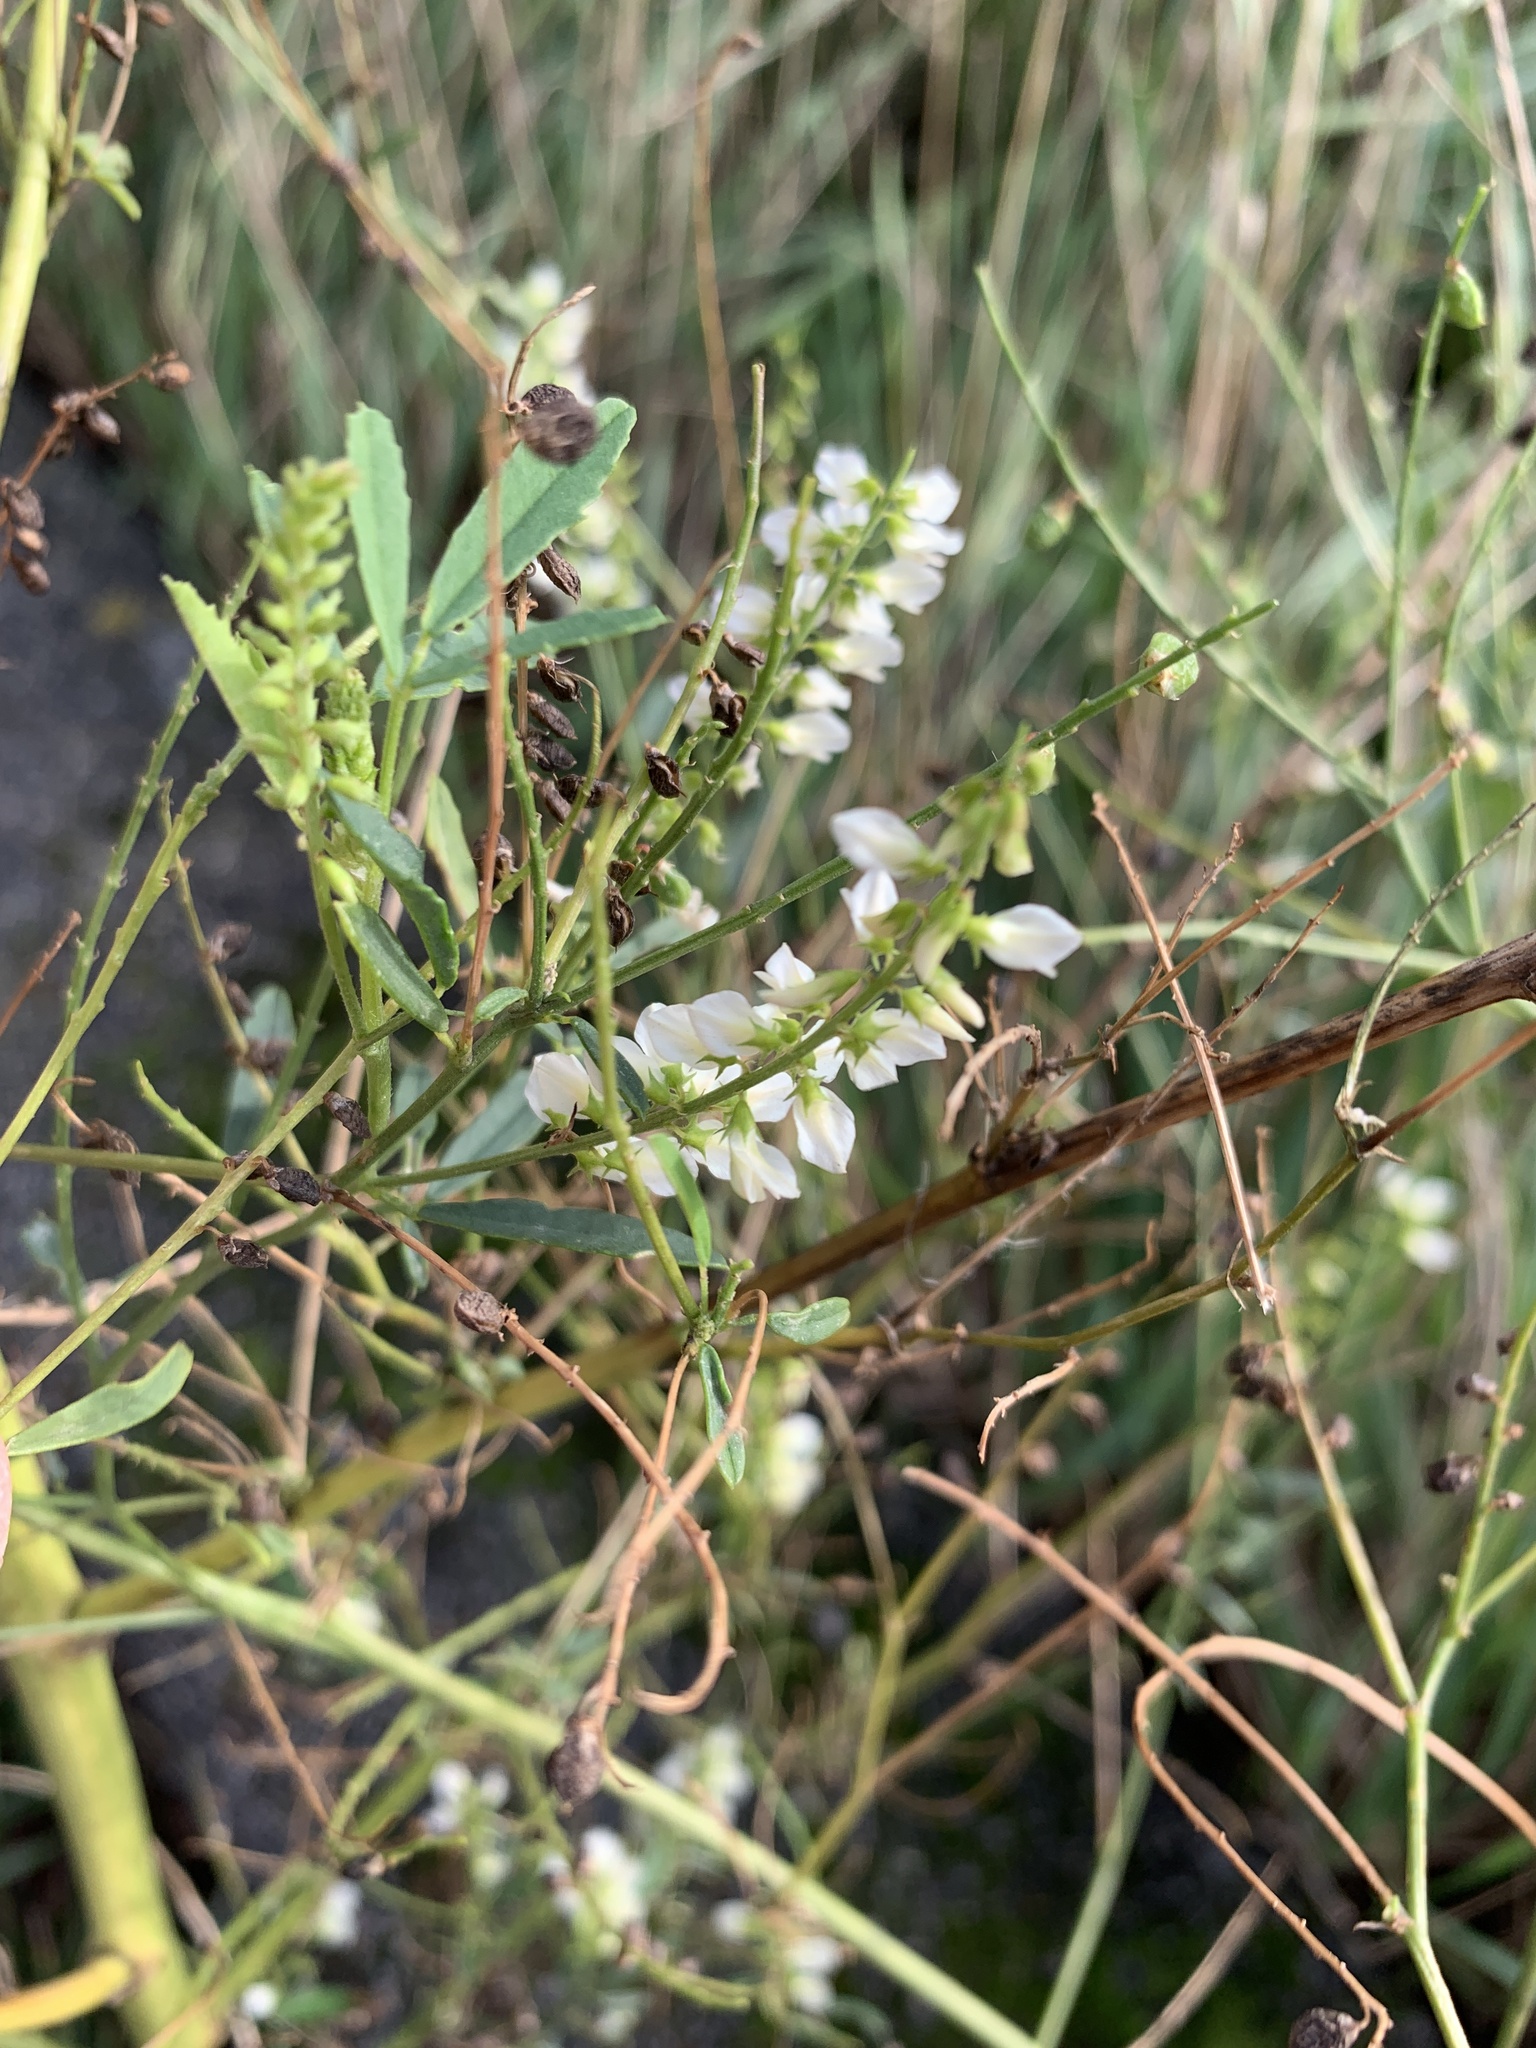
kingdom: Plantae
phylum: Tracheophyta
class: Magnoliopsida
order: Fabales
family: Fabaceae
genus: Melilotus
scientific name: Melilotus albus
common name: White melilot
